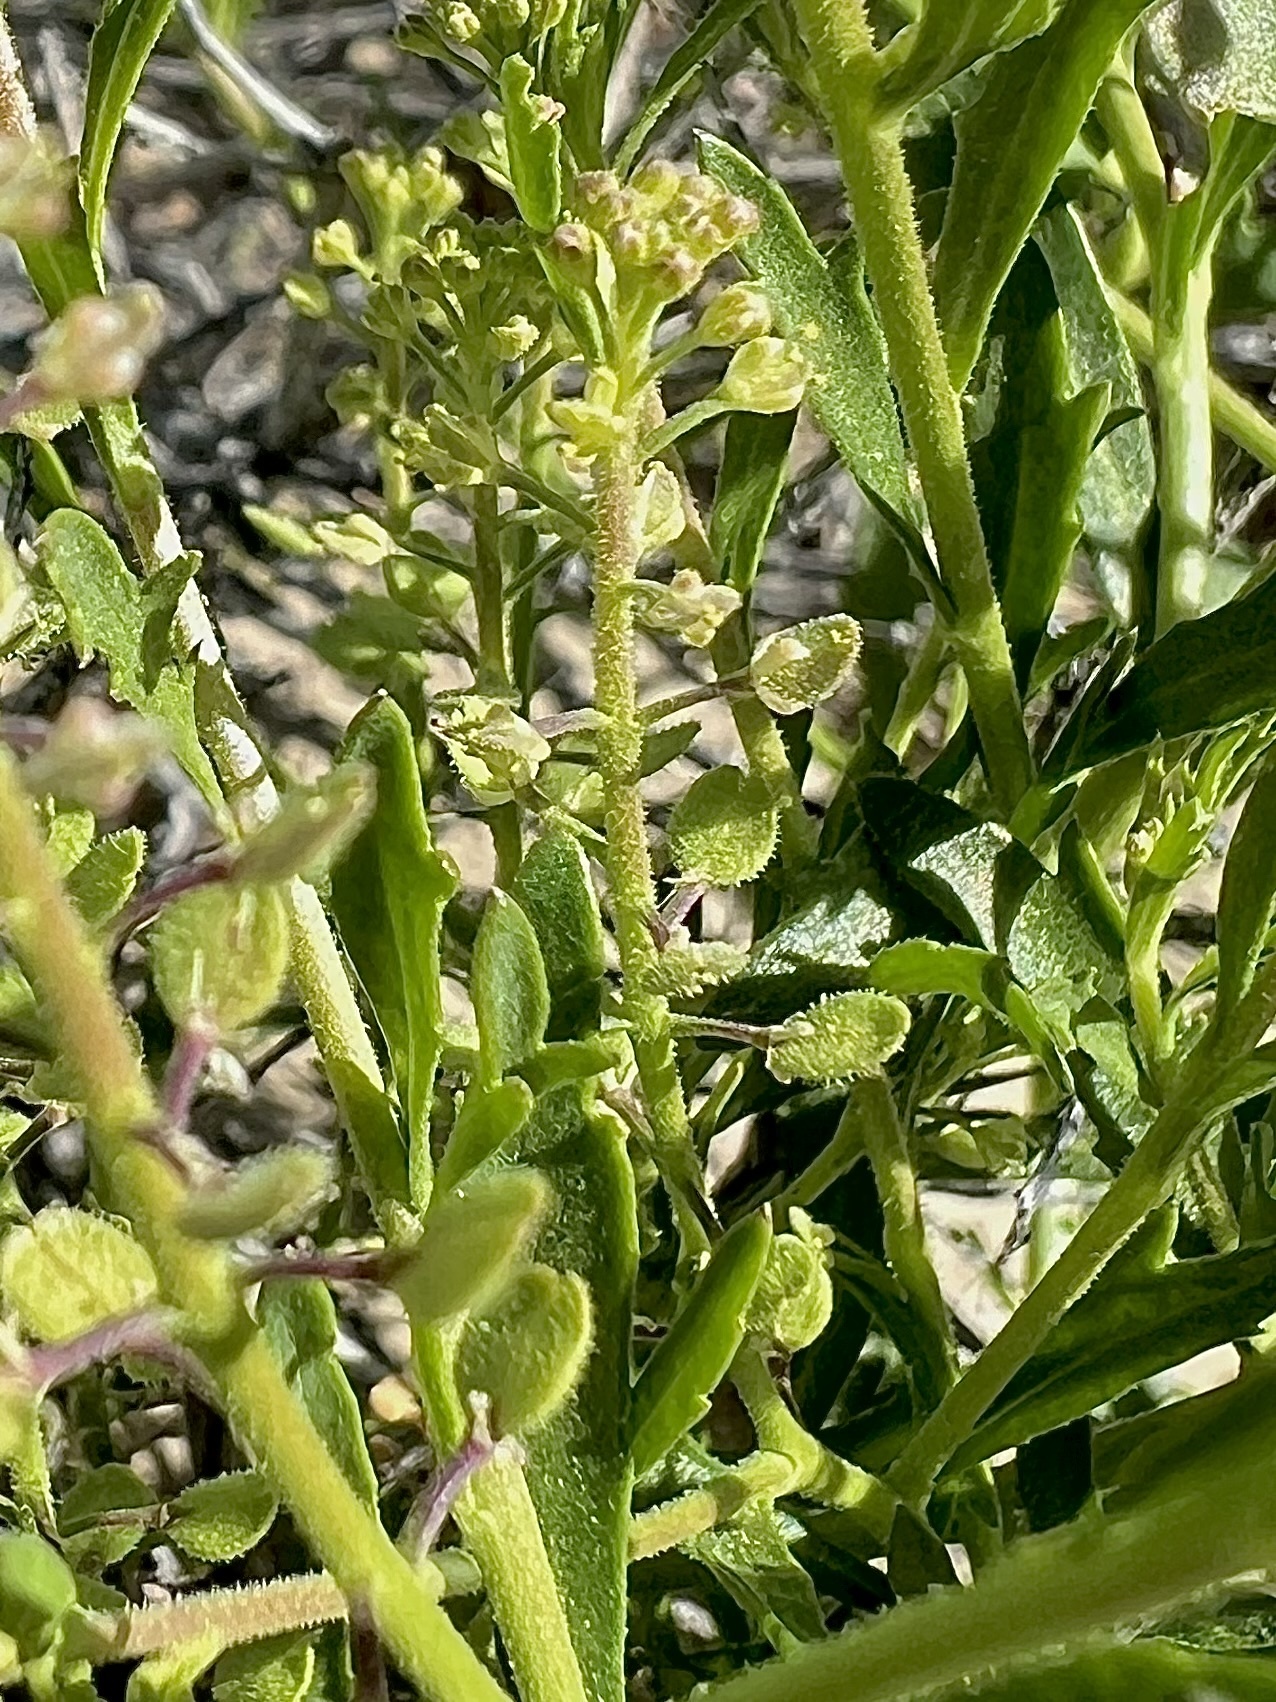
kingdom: Plantae
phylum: Tracheophyta
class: Magnoliopsida
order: Brassicales
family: Brassicaceae
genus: Lepidium
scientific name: Lepidium lasiocarpum
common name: Hairy-pod pepperwort
